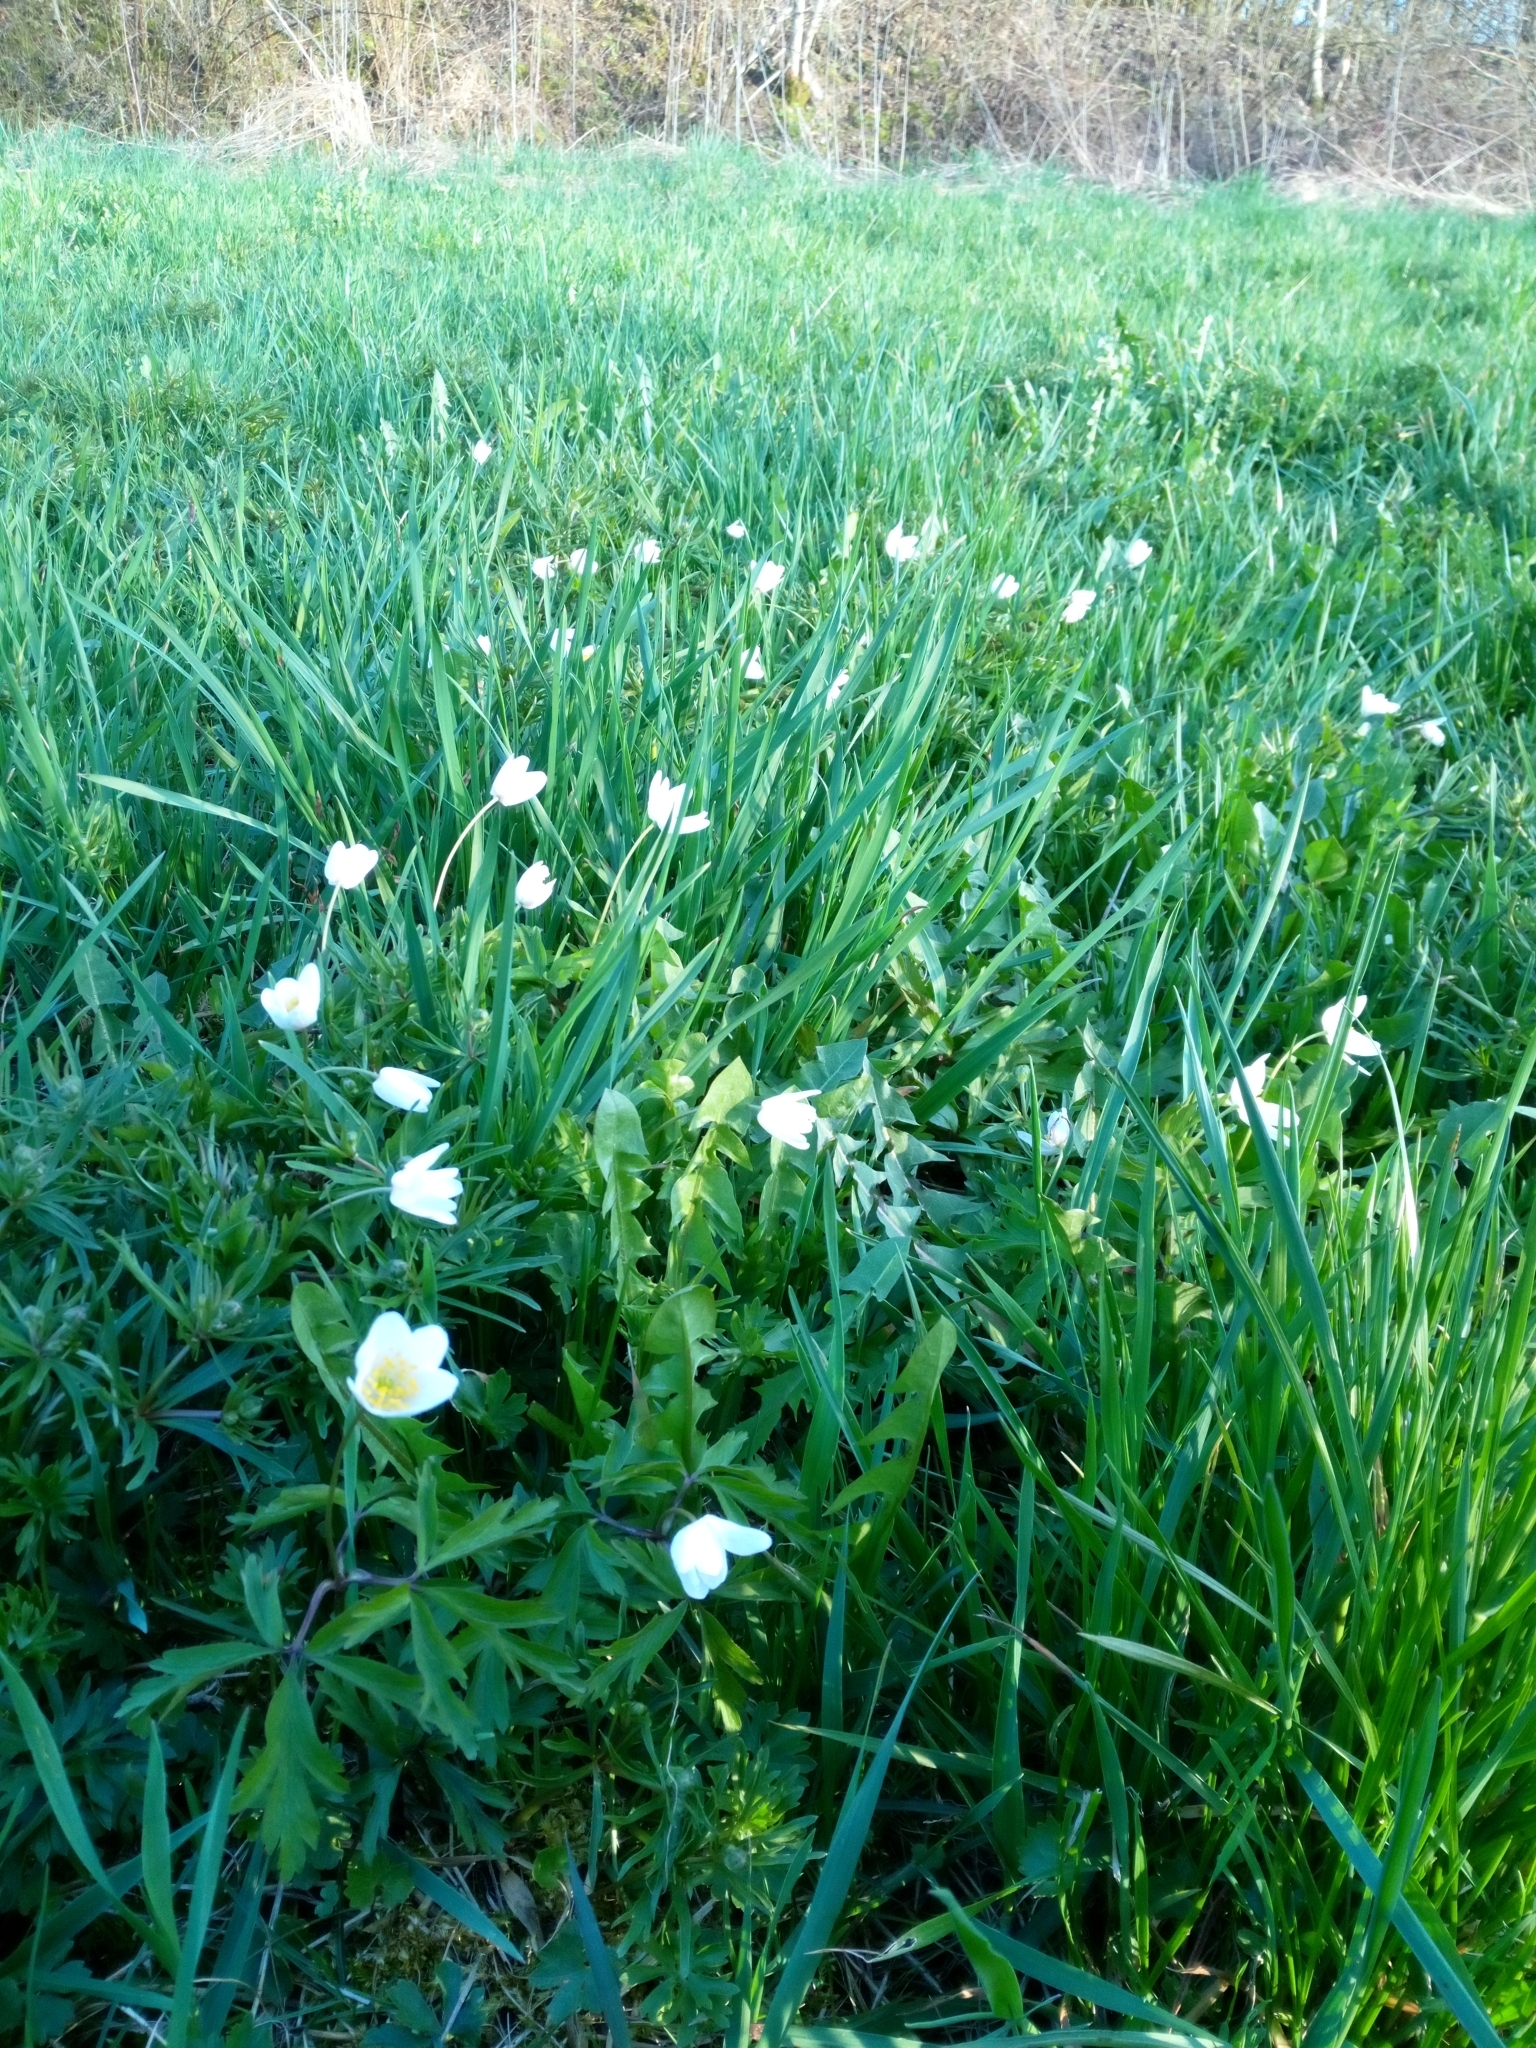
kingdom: Plantae
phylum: Tracheophyta
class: Magnoliopsida
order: Ranunculales
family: Ranunculaceae
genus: Anemone
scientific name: Anemone nemorosa
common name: Wood anemone
